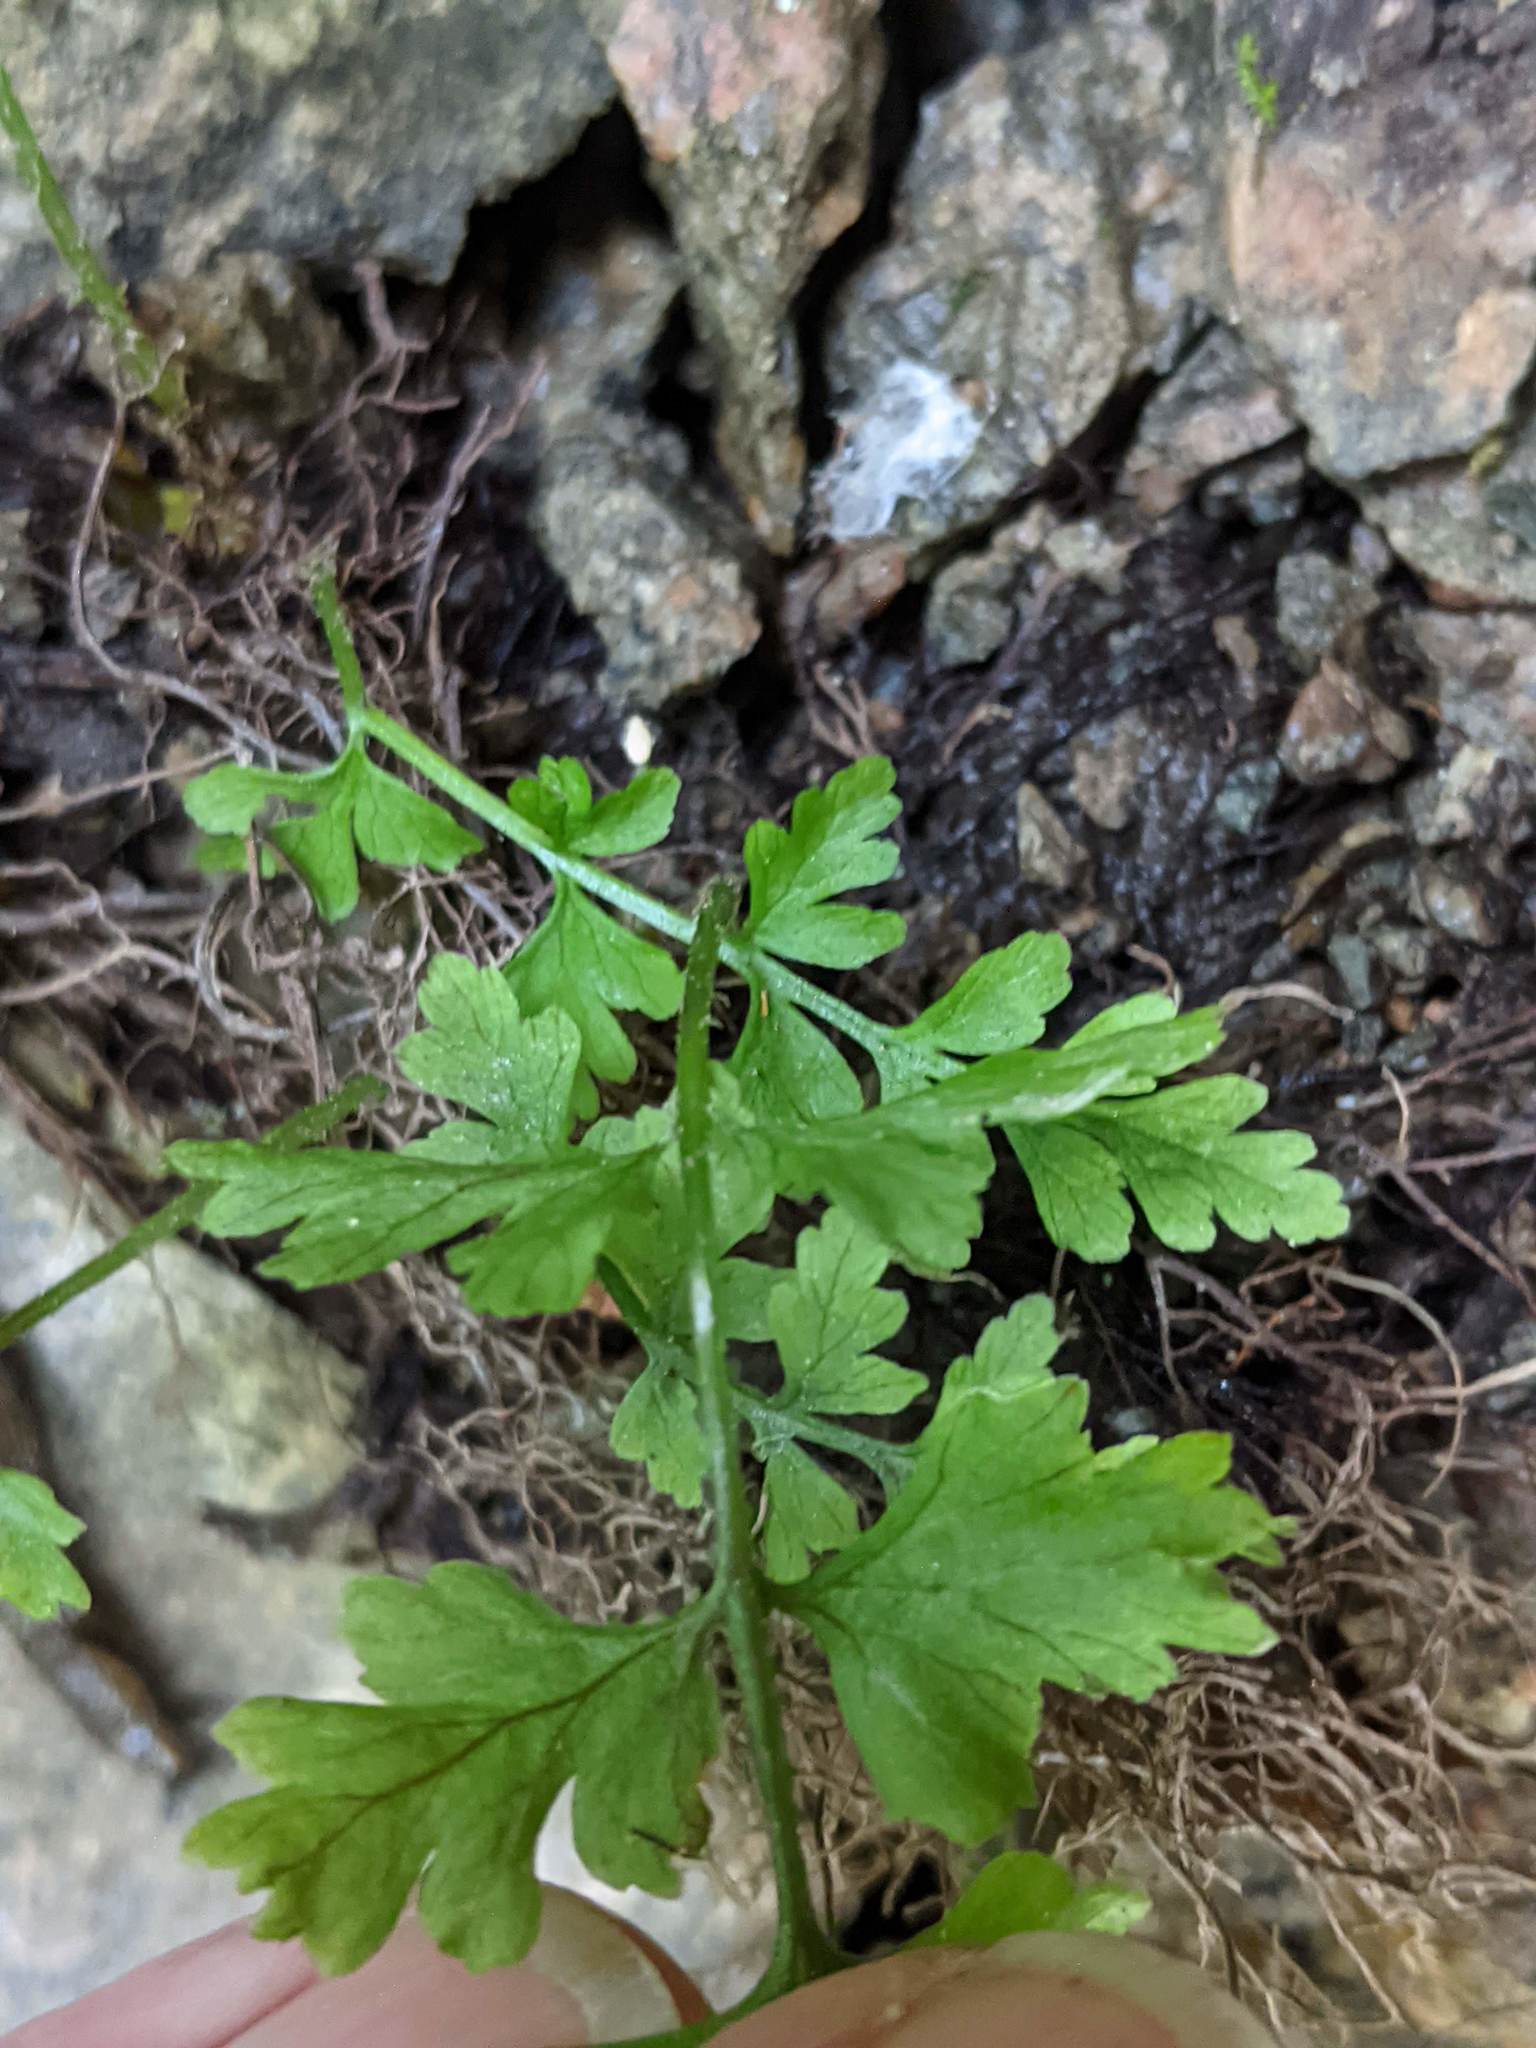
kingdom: Plantae
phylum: Tracheophyta
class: Polypodiopsida
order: Polypodiales
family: Pteridaceae
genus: Cryptogramma
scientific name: Cryptogramma stelleri
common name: Cliff-brake
